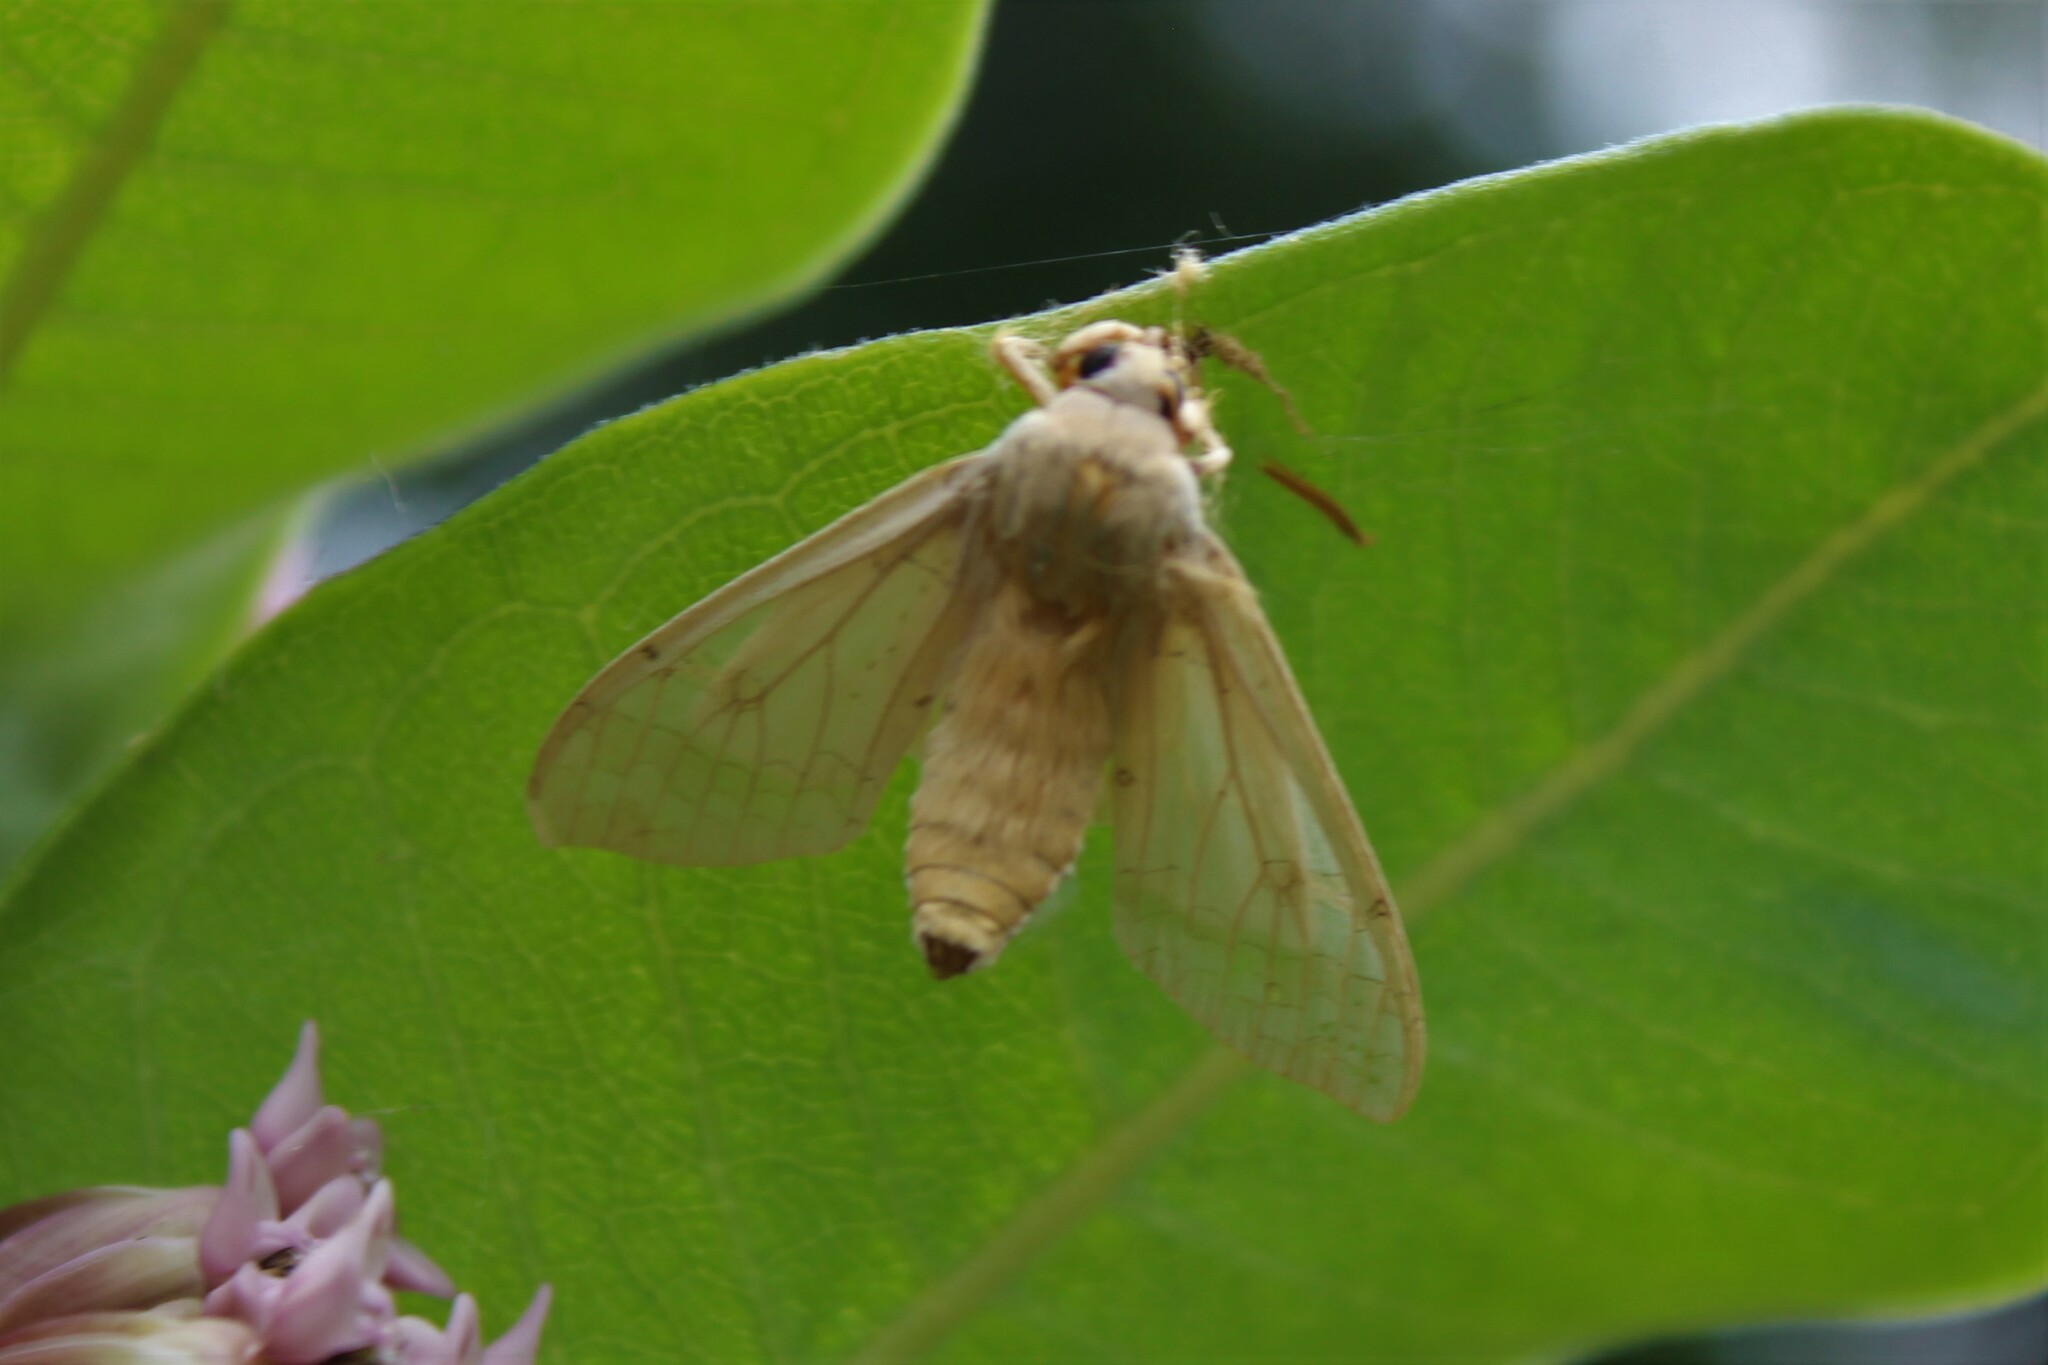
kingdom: Animalia
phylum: Arthropoda
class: Insecta
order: Lepidoptera
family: Erebidae
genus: Halysidota
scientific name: Halysidota tessellaris
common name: Banded tussock moth
